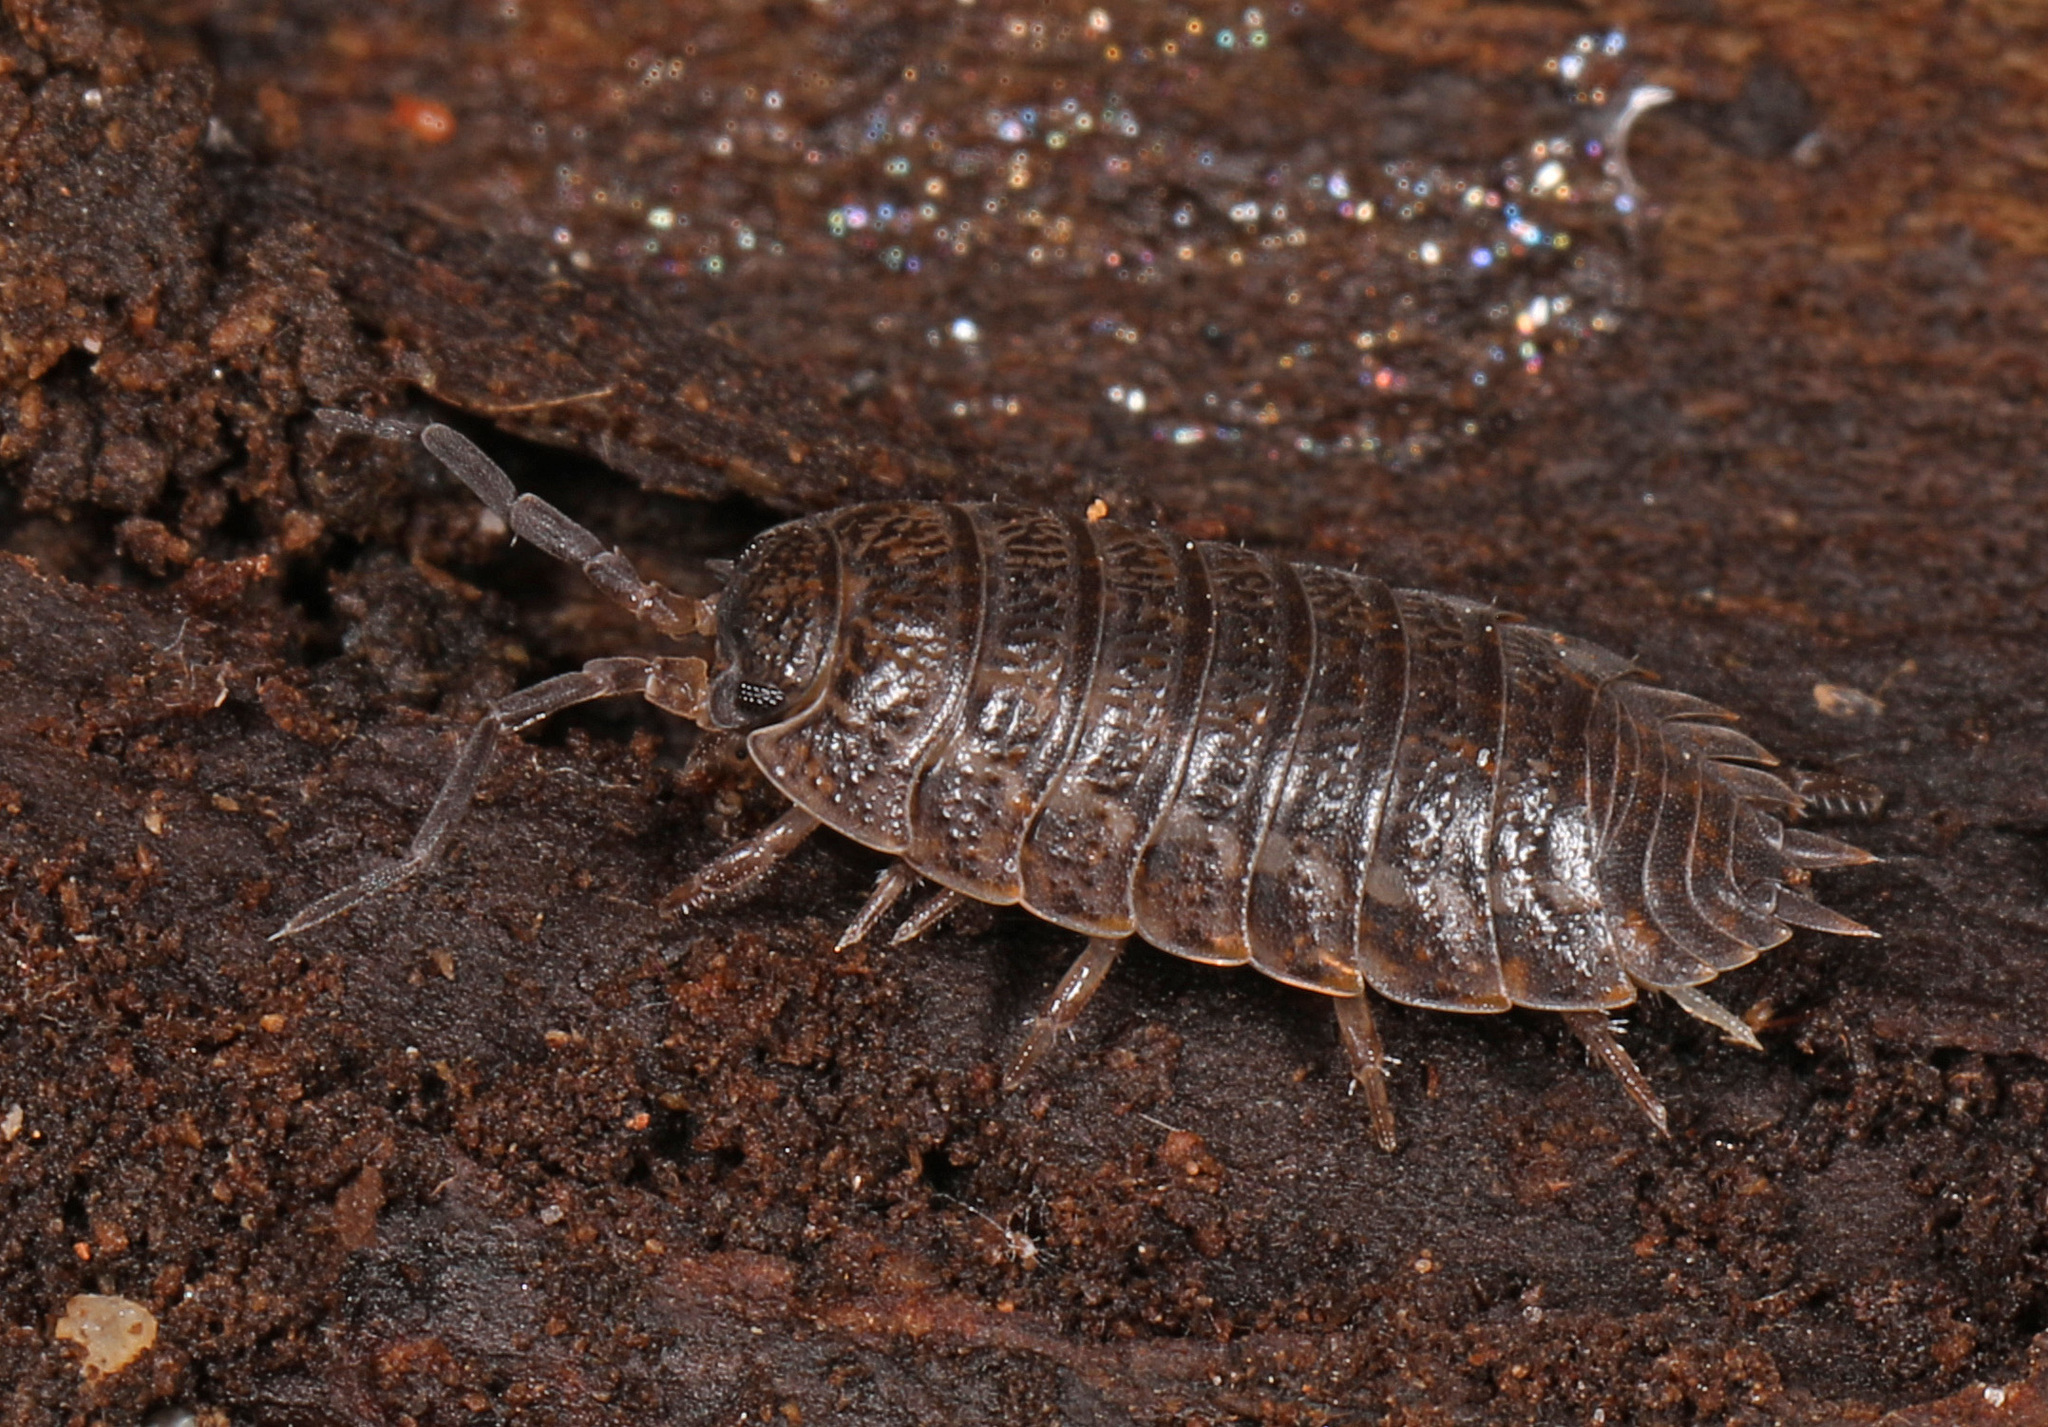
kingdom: Animalia
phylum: Arthropoda
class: Malacostraca
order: Isopoda
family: Trachelipodidae
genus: Trachelipus
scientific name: Trachelipus rathkii
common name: Isopod
